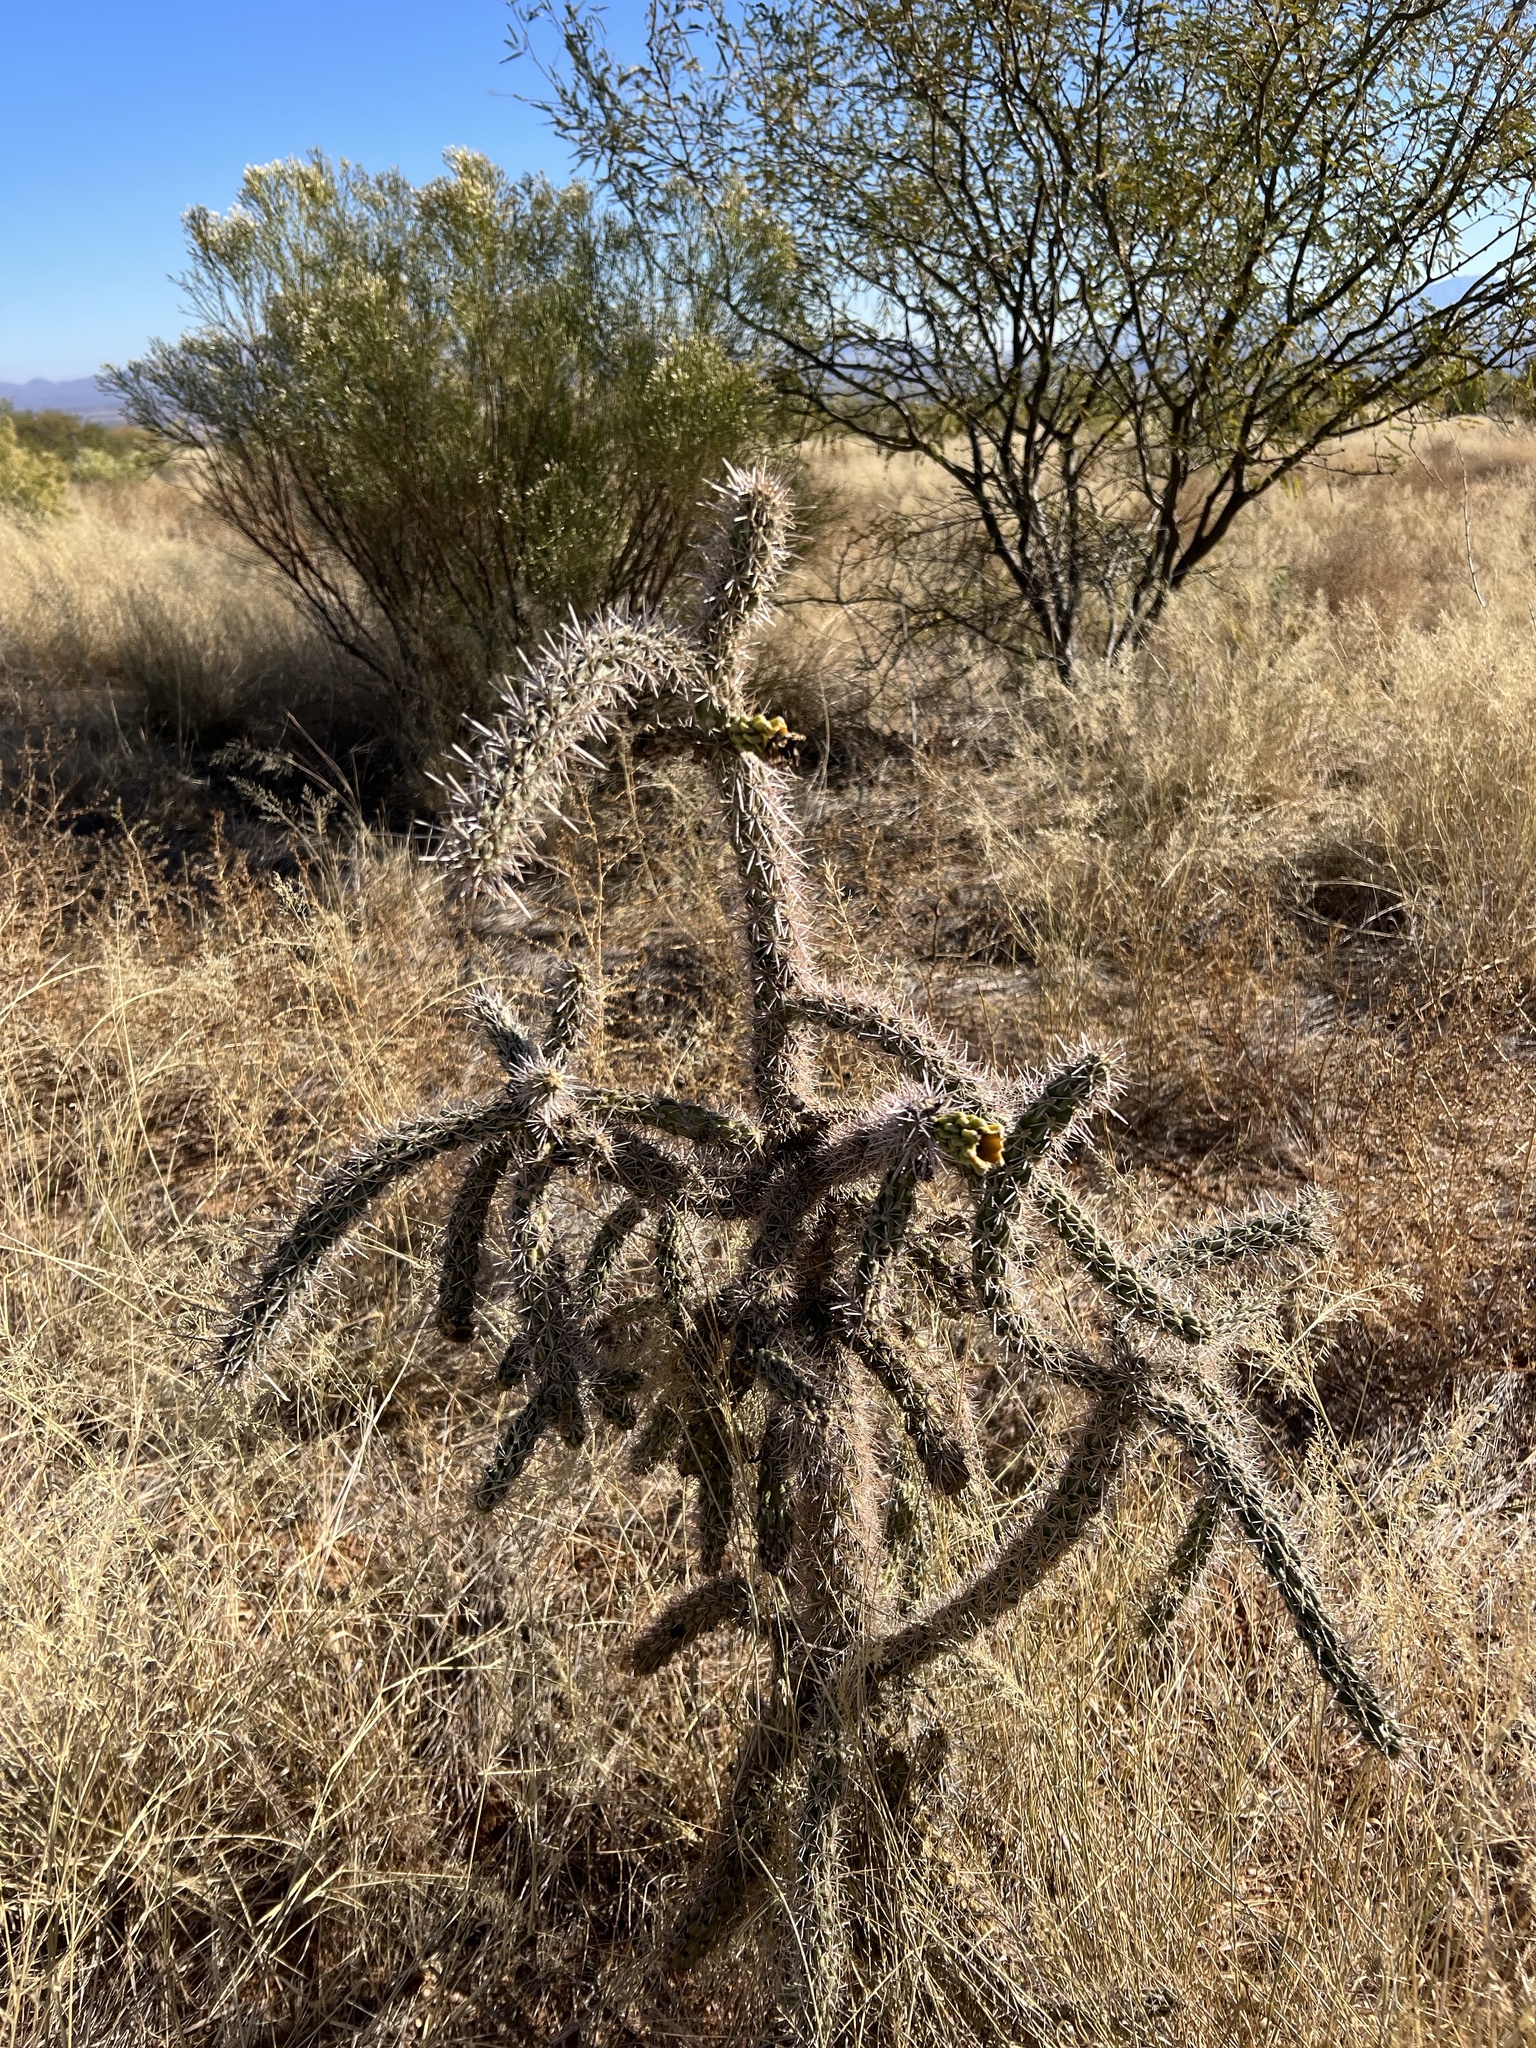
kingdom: Plantae
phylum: Tracheophyta
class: Magnoliopsida
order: Caryophyllales
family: Cactaceae
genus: Cylindropuntia
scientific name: Cylindropuntia imbricata
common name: Candelabrum cactus
